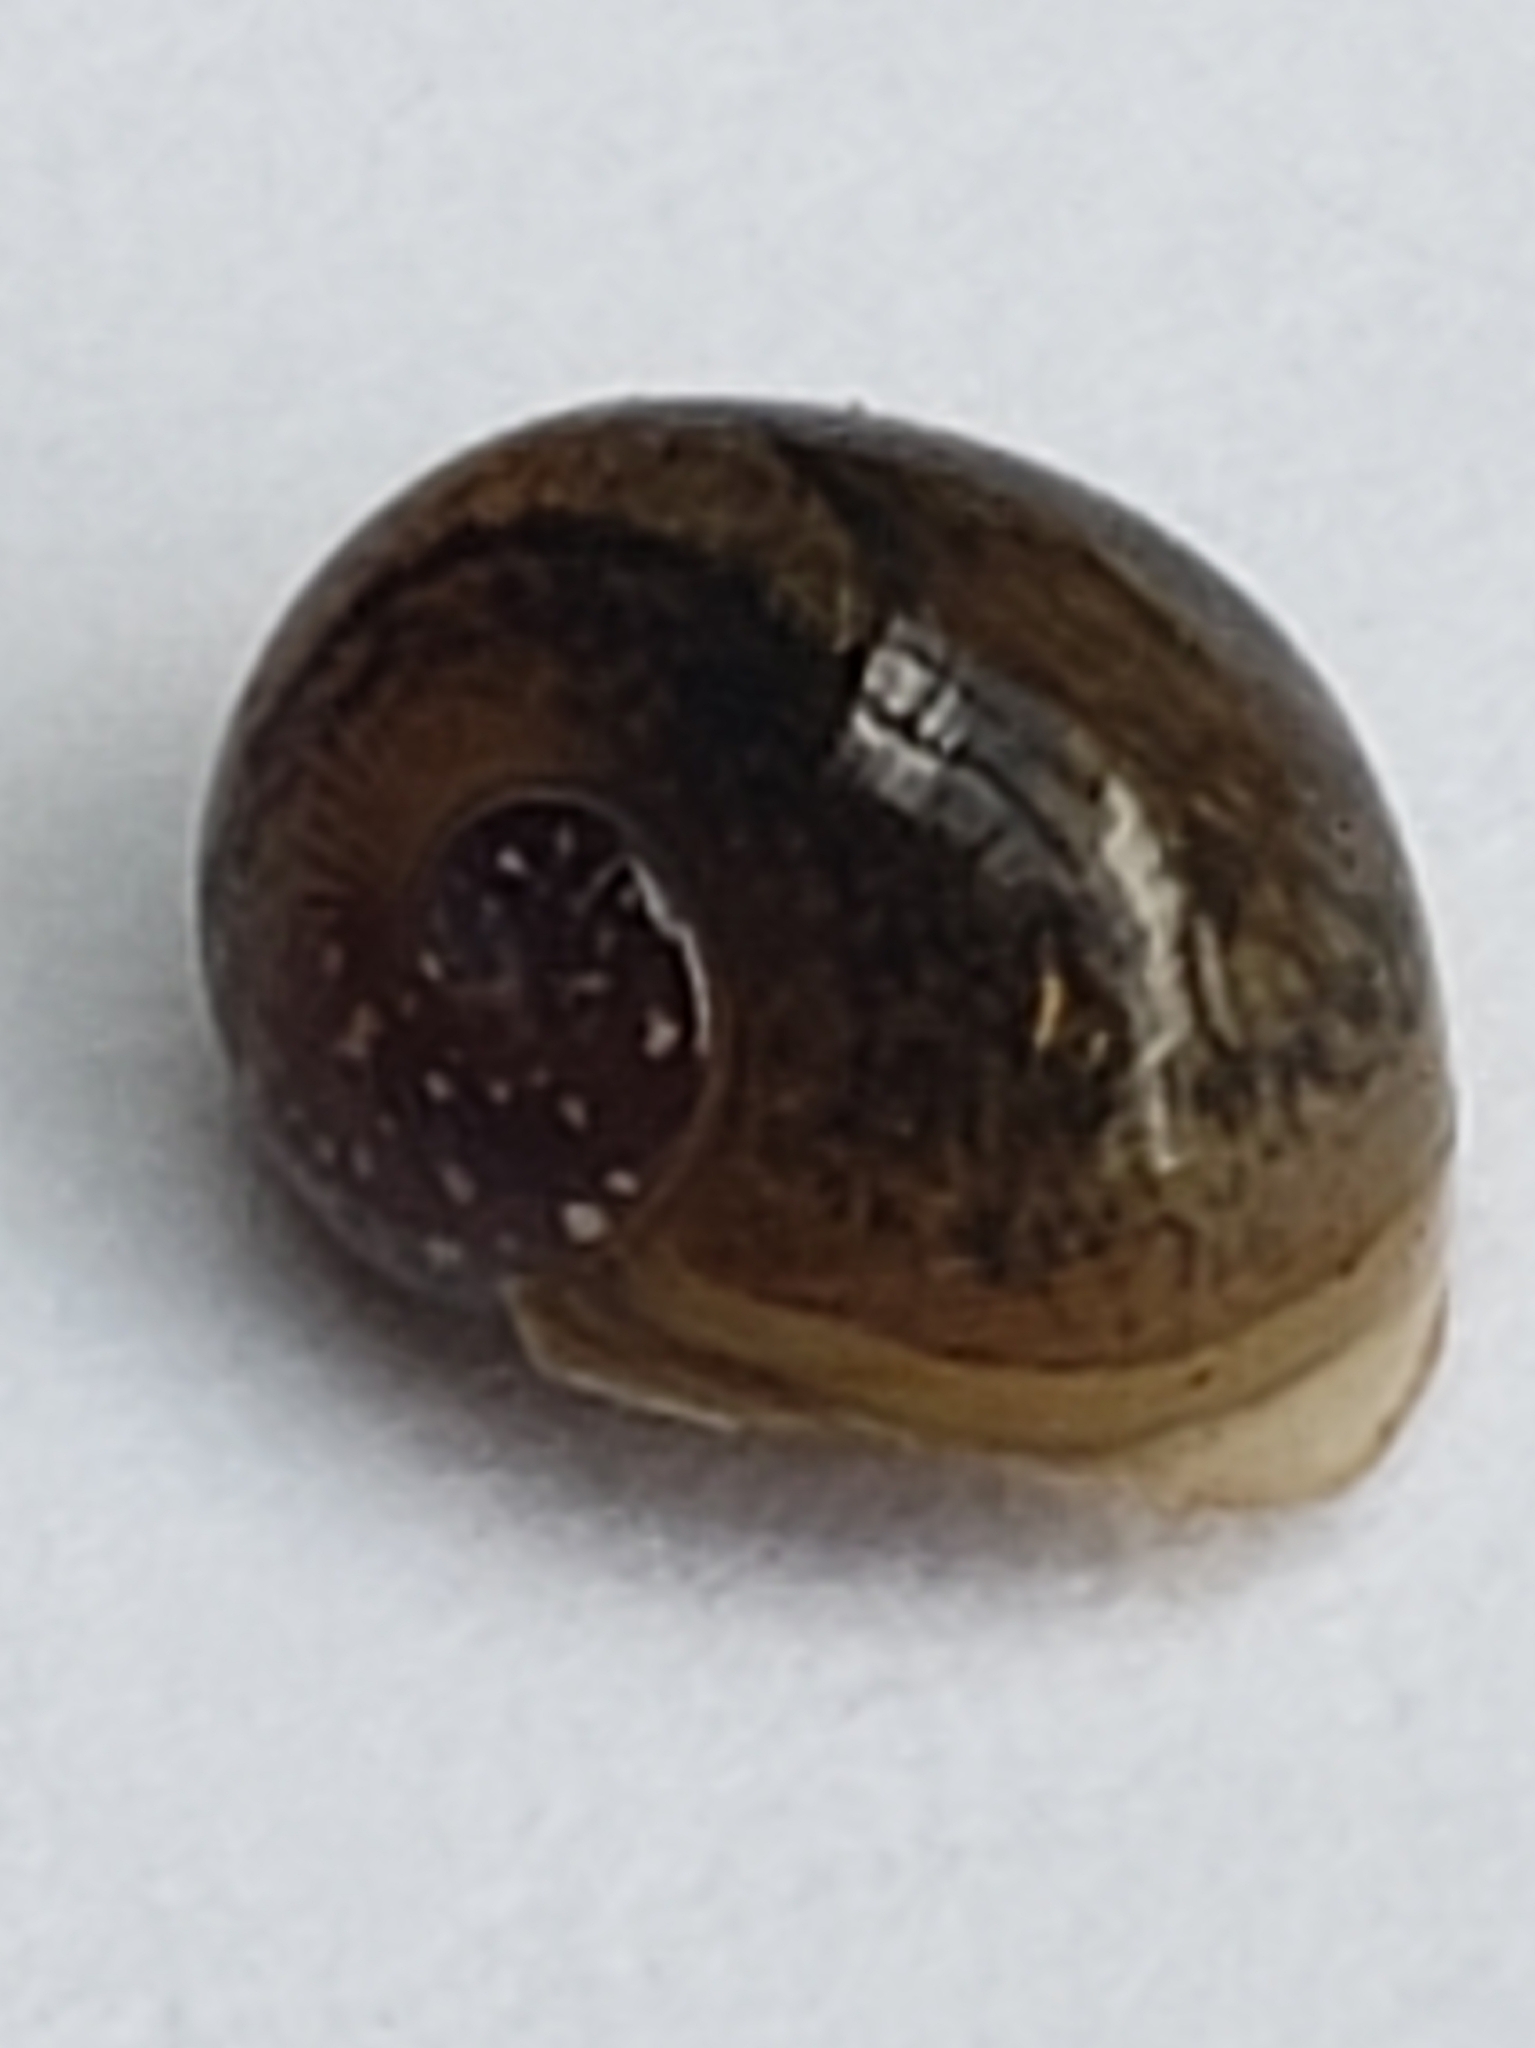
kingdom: Animalia
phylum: Mollusca
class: Gastropoda
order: Stylommatophora
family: Zachrysiidae
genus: Zachrysia
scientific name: Zachrysia provisoria
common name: Garden zachrysia
